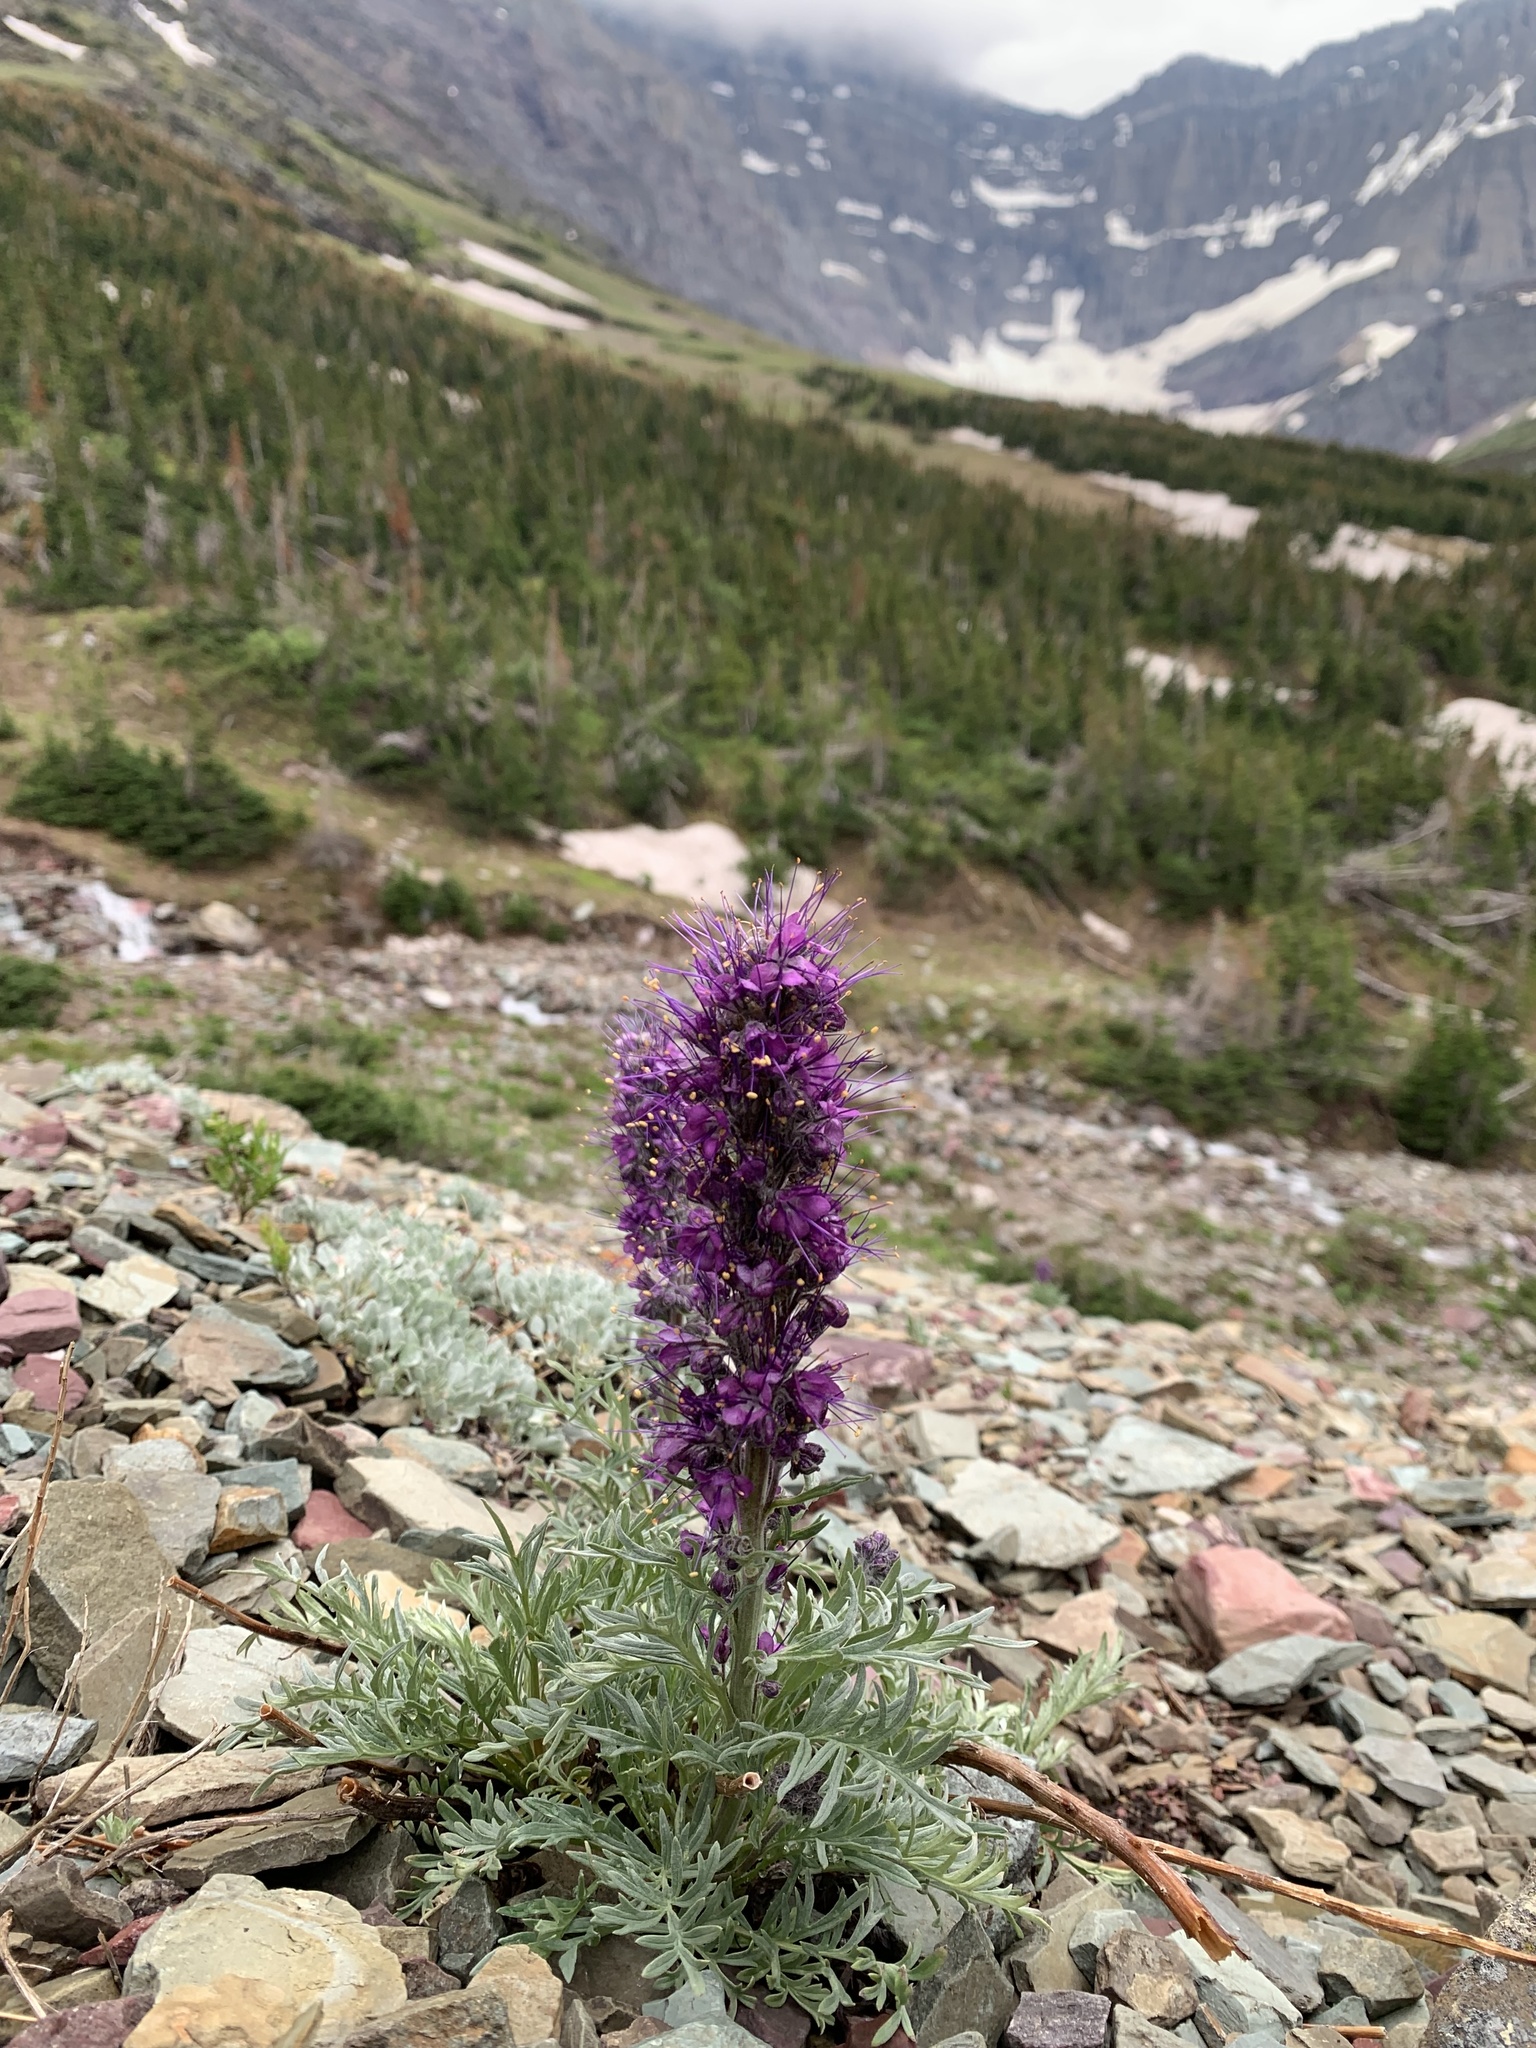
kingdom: Plantae
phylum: Tracheophyta
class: Magnoliopsida
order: Boraginales
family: Hydrophyllaceae
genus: Phacelia
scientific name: Phacelia sericea
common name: Silky phacelia
